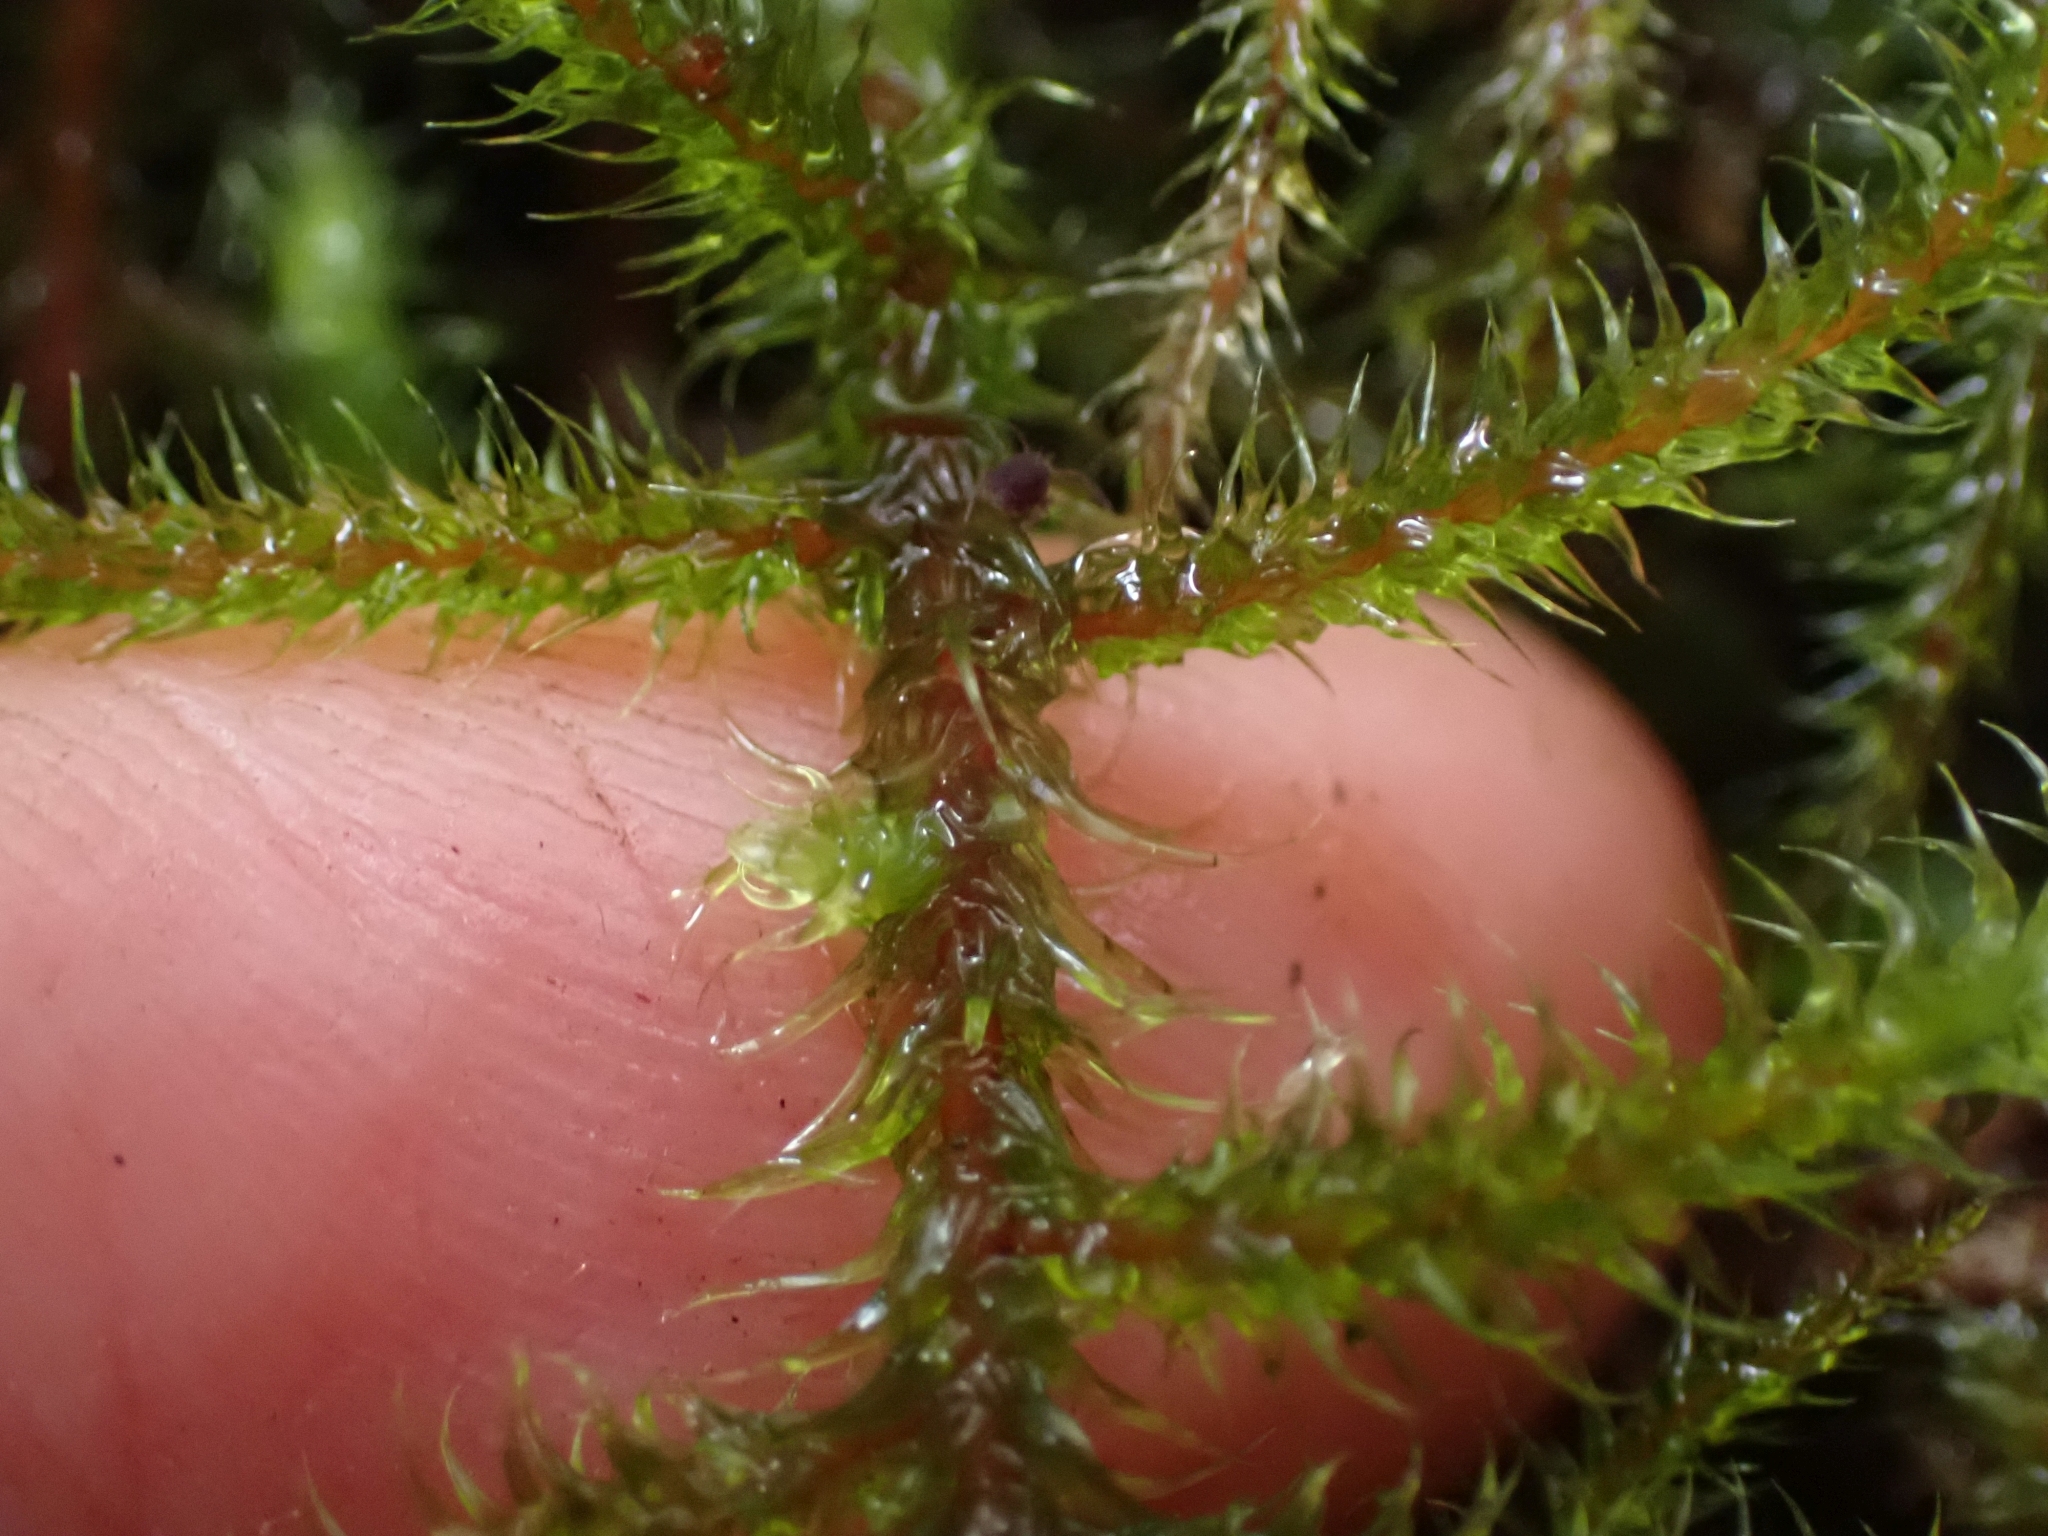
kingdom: Plantae
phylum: Bryophyta
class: Bryopsida
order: Hypnales
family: Hylocomiaceae
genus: Rhytidiadelphus
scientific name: Rhytidiadelphus loreus
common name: Lanky moss
